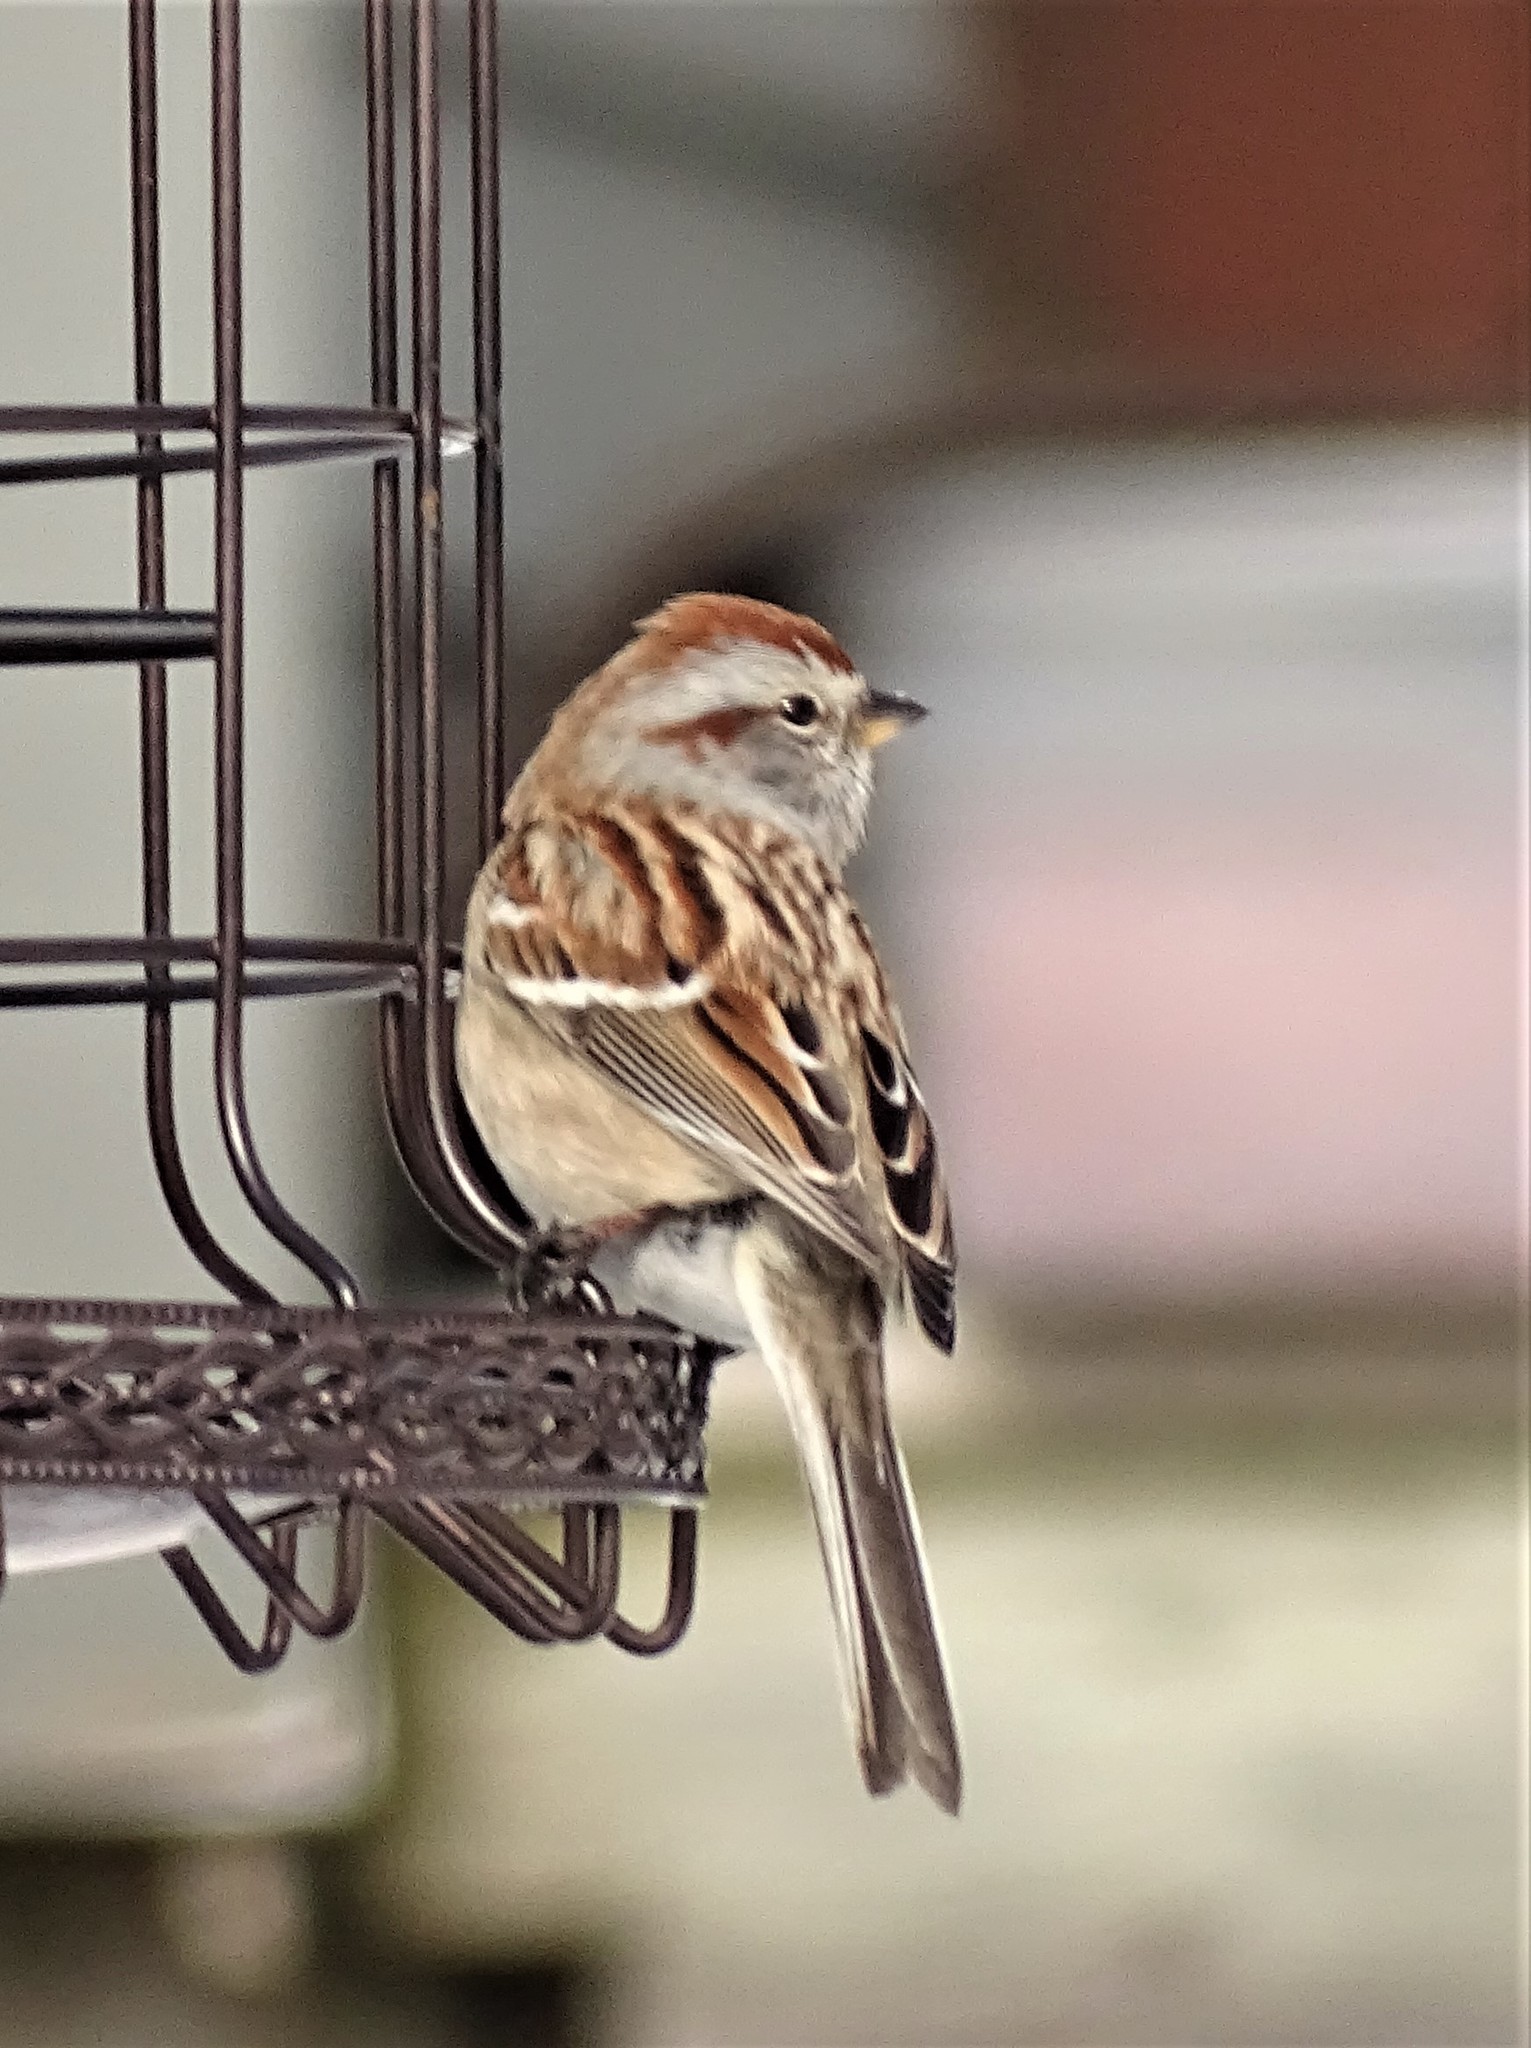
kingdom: Animalia
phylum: Chordata
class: Aves
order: Passeriformes
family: Passerellidae
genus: Spizelloides
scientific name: Spizelloides arborea
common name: American tree sparrow
